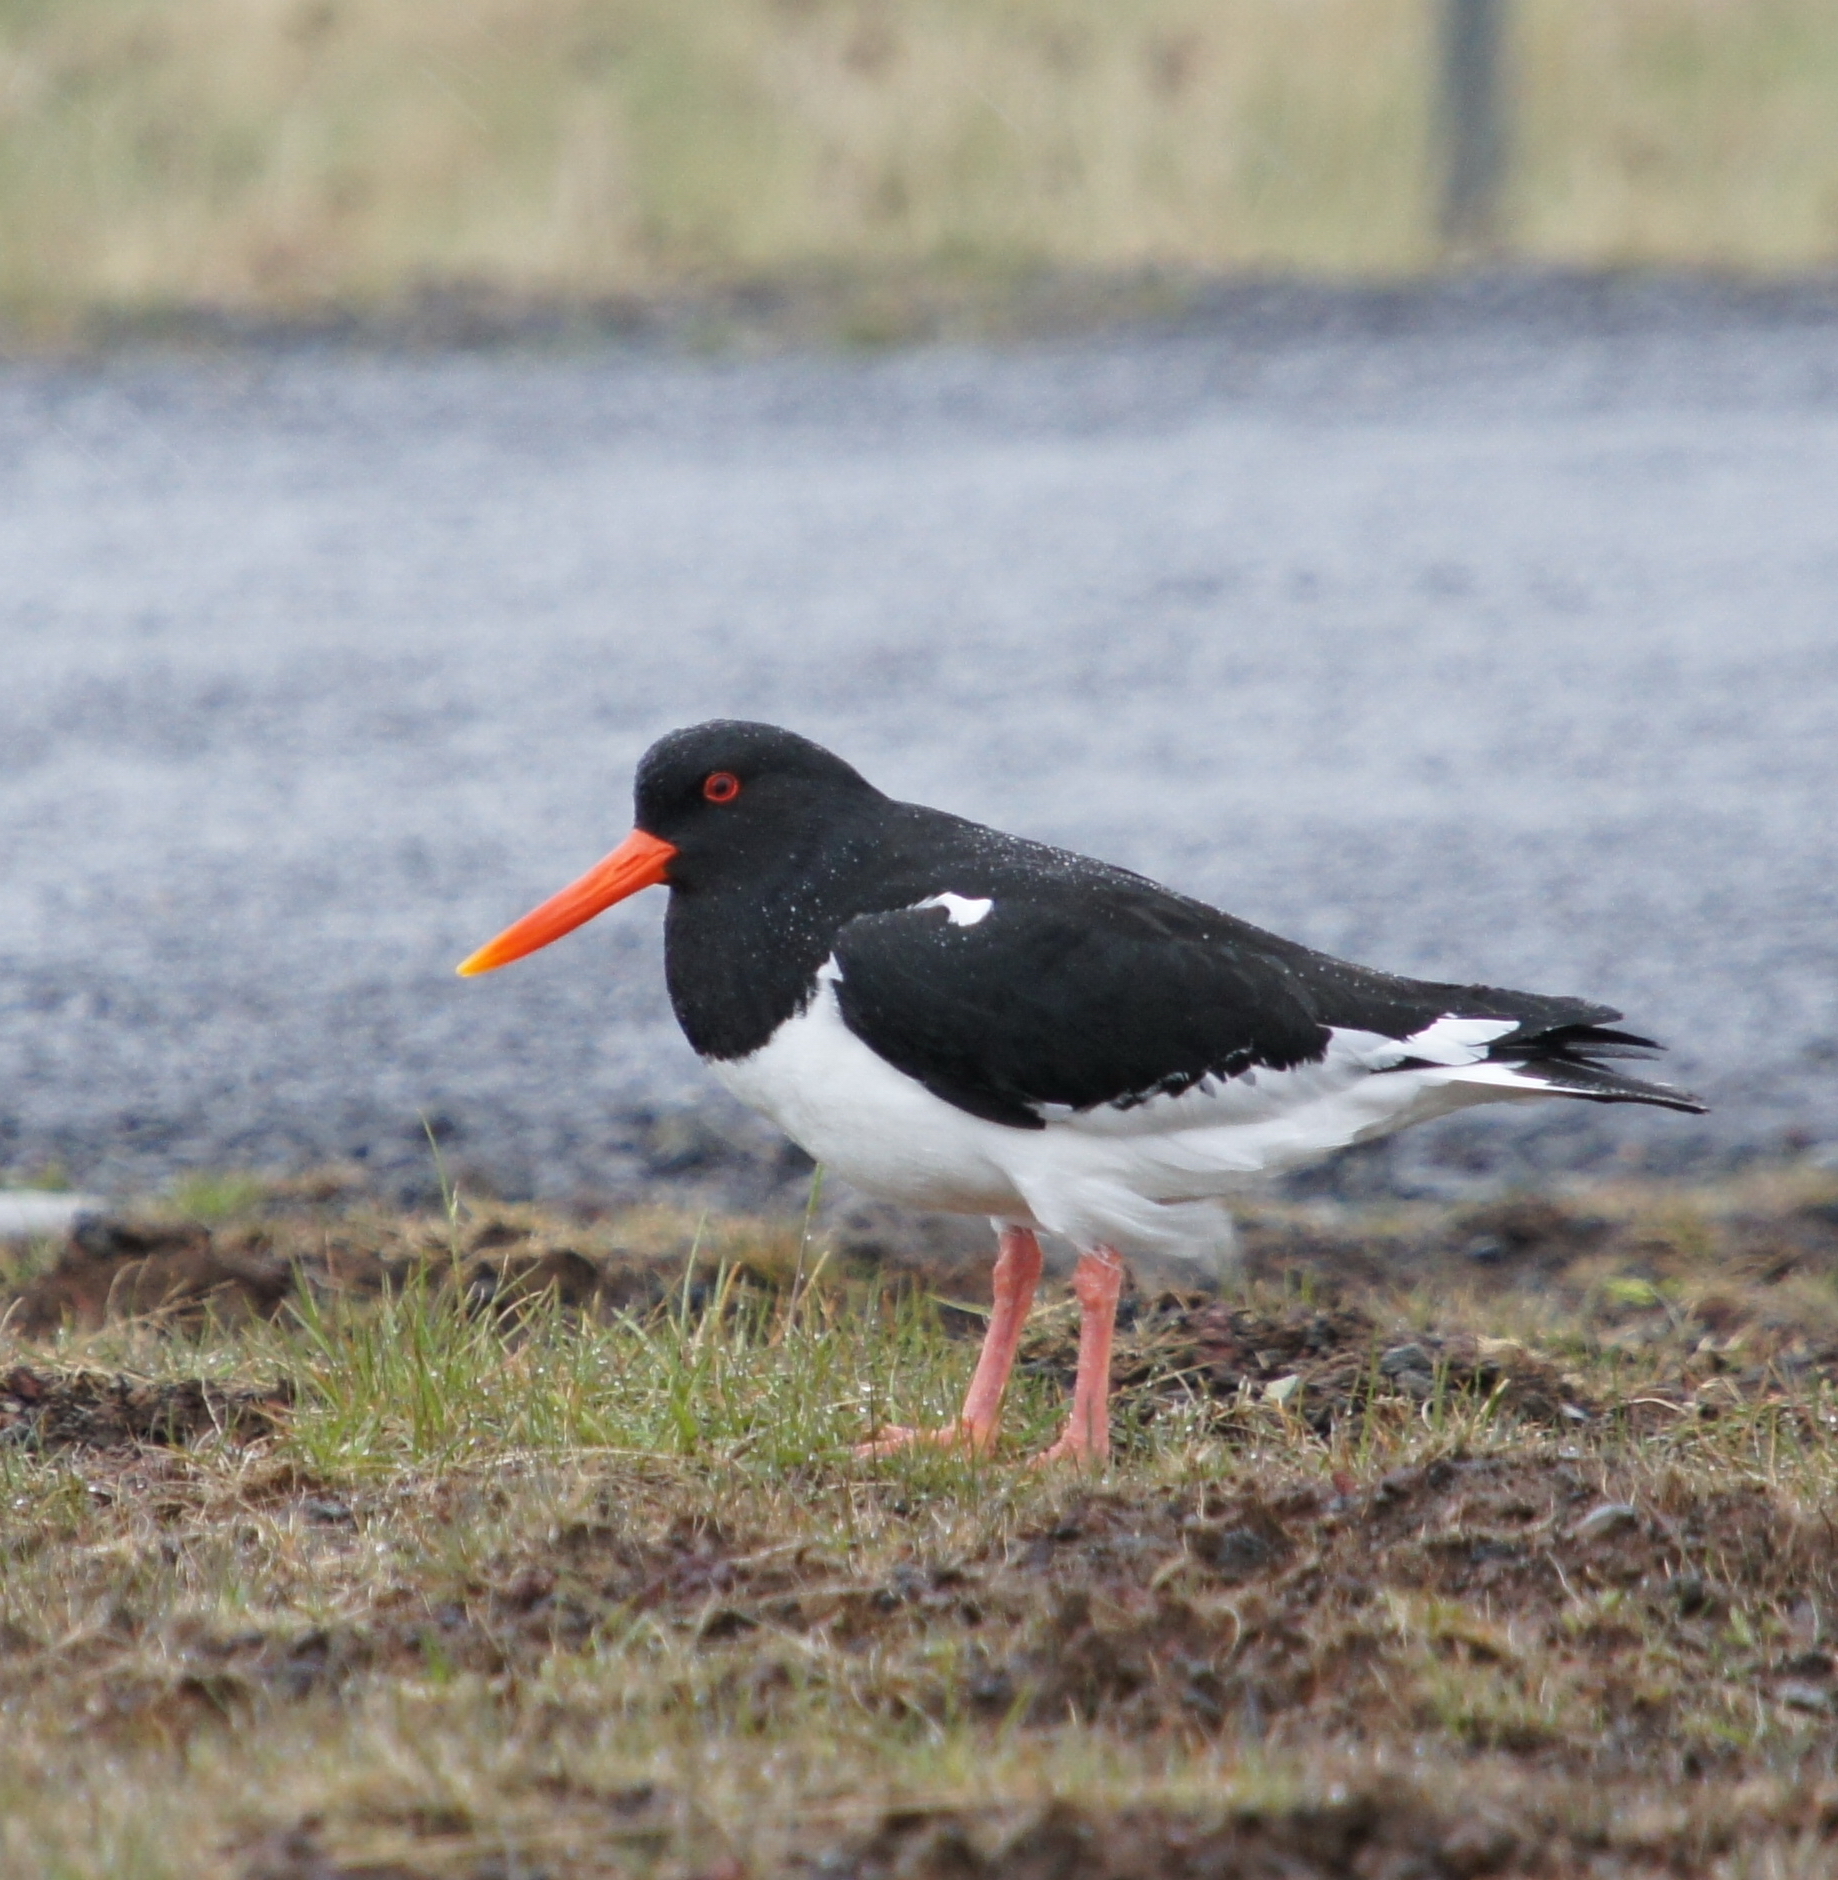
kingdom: Animalia
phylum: Chordata
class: Aves
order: Charadriiformes
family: Haematopodidae
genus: Haematopus
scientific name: Haematopus ostralegus
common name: Eurasian oystercatcher
